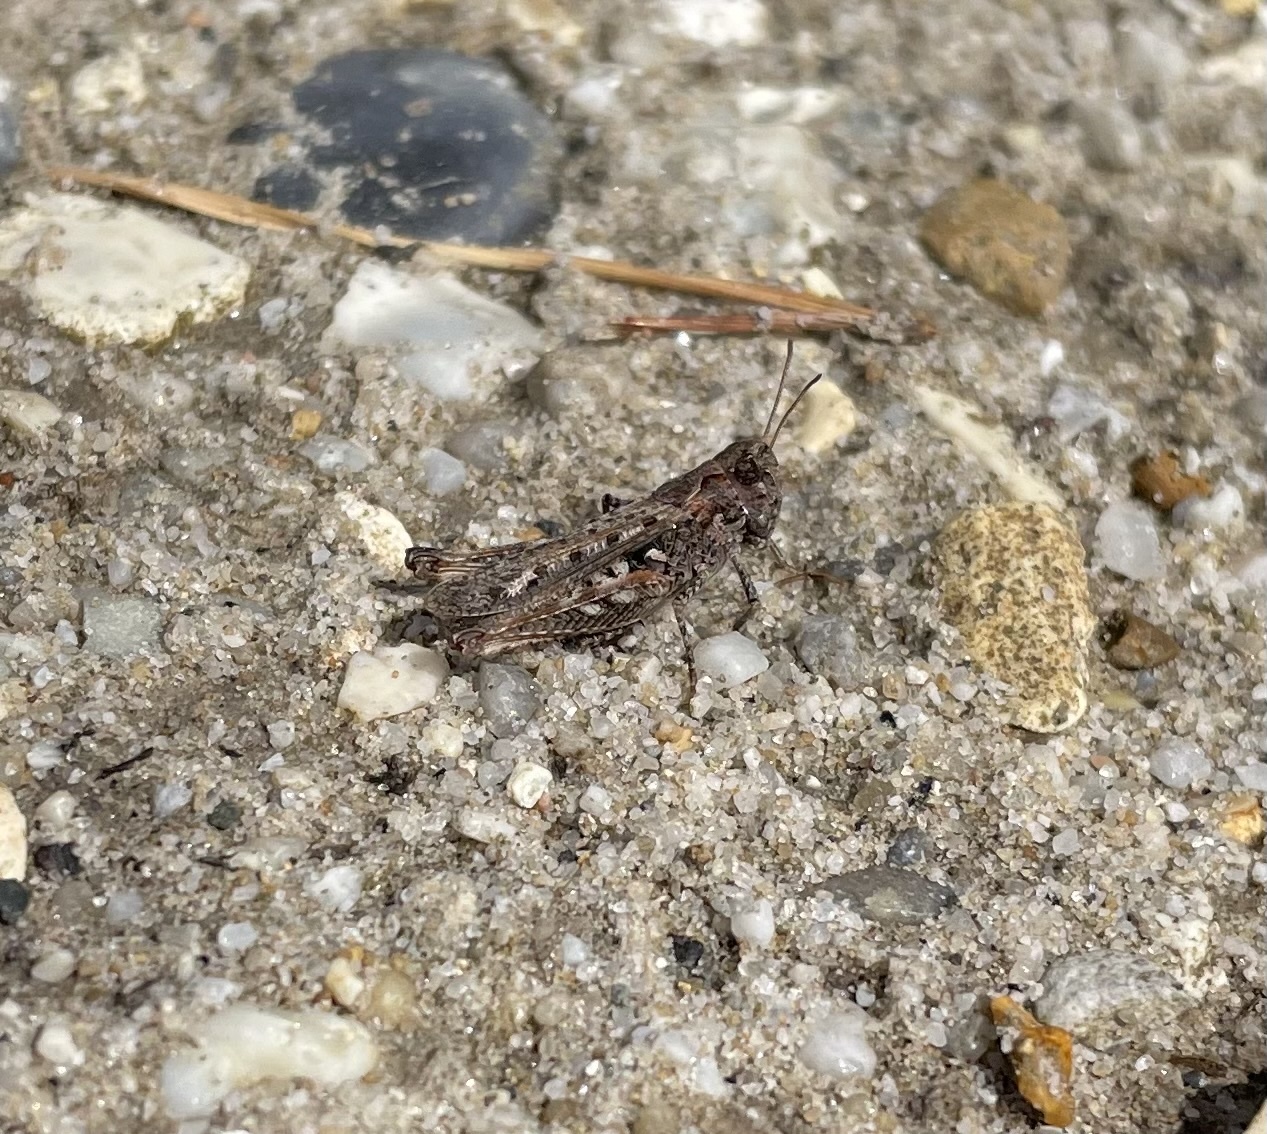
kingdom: Animalia
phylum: Arthropoda
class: Insecta
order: Orthoptera
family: Acrididae
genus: Myrmeleotettix
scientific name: Myrmeleotettix maculatus
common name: Mottled grasshopper
